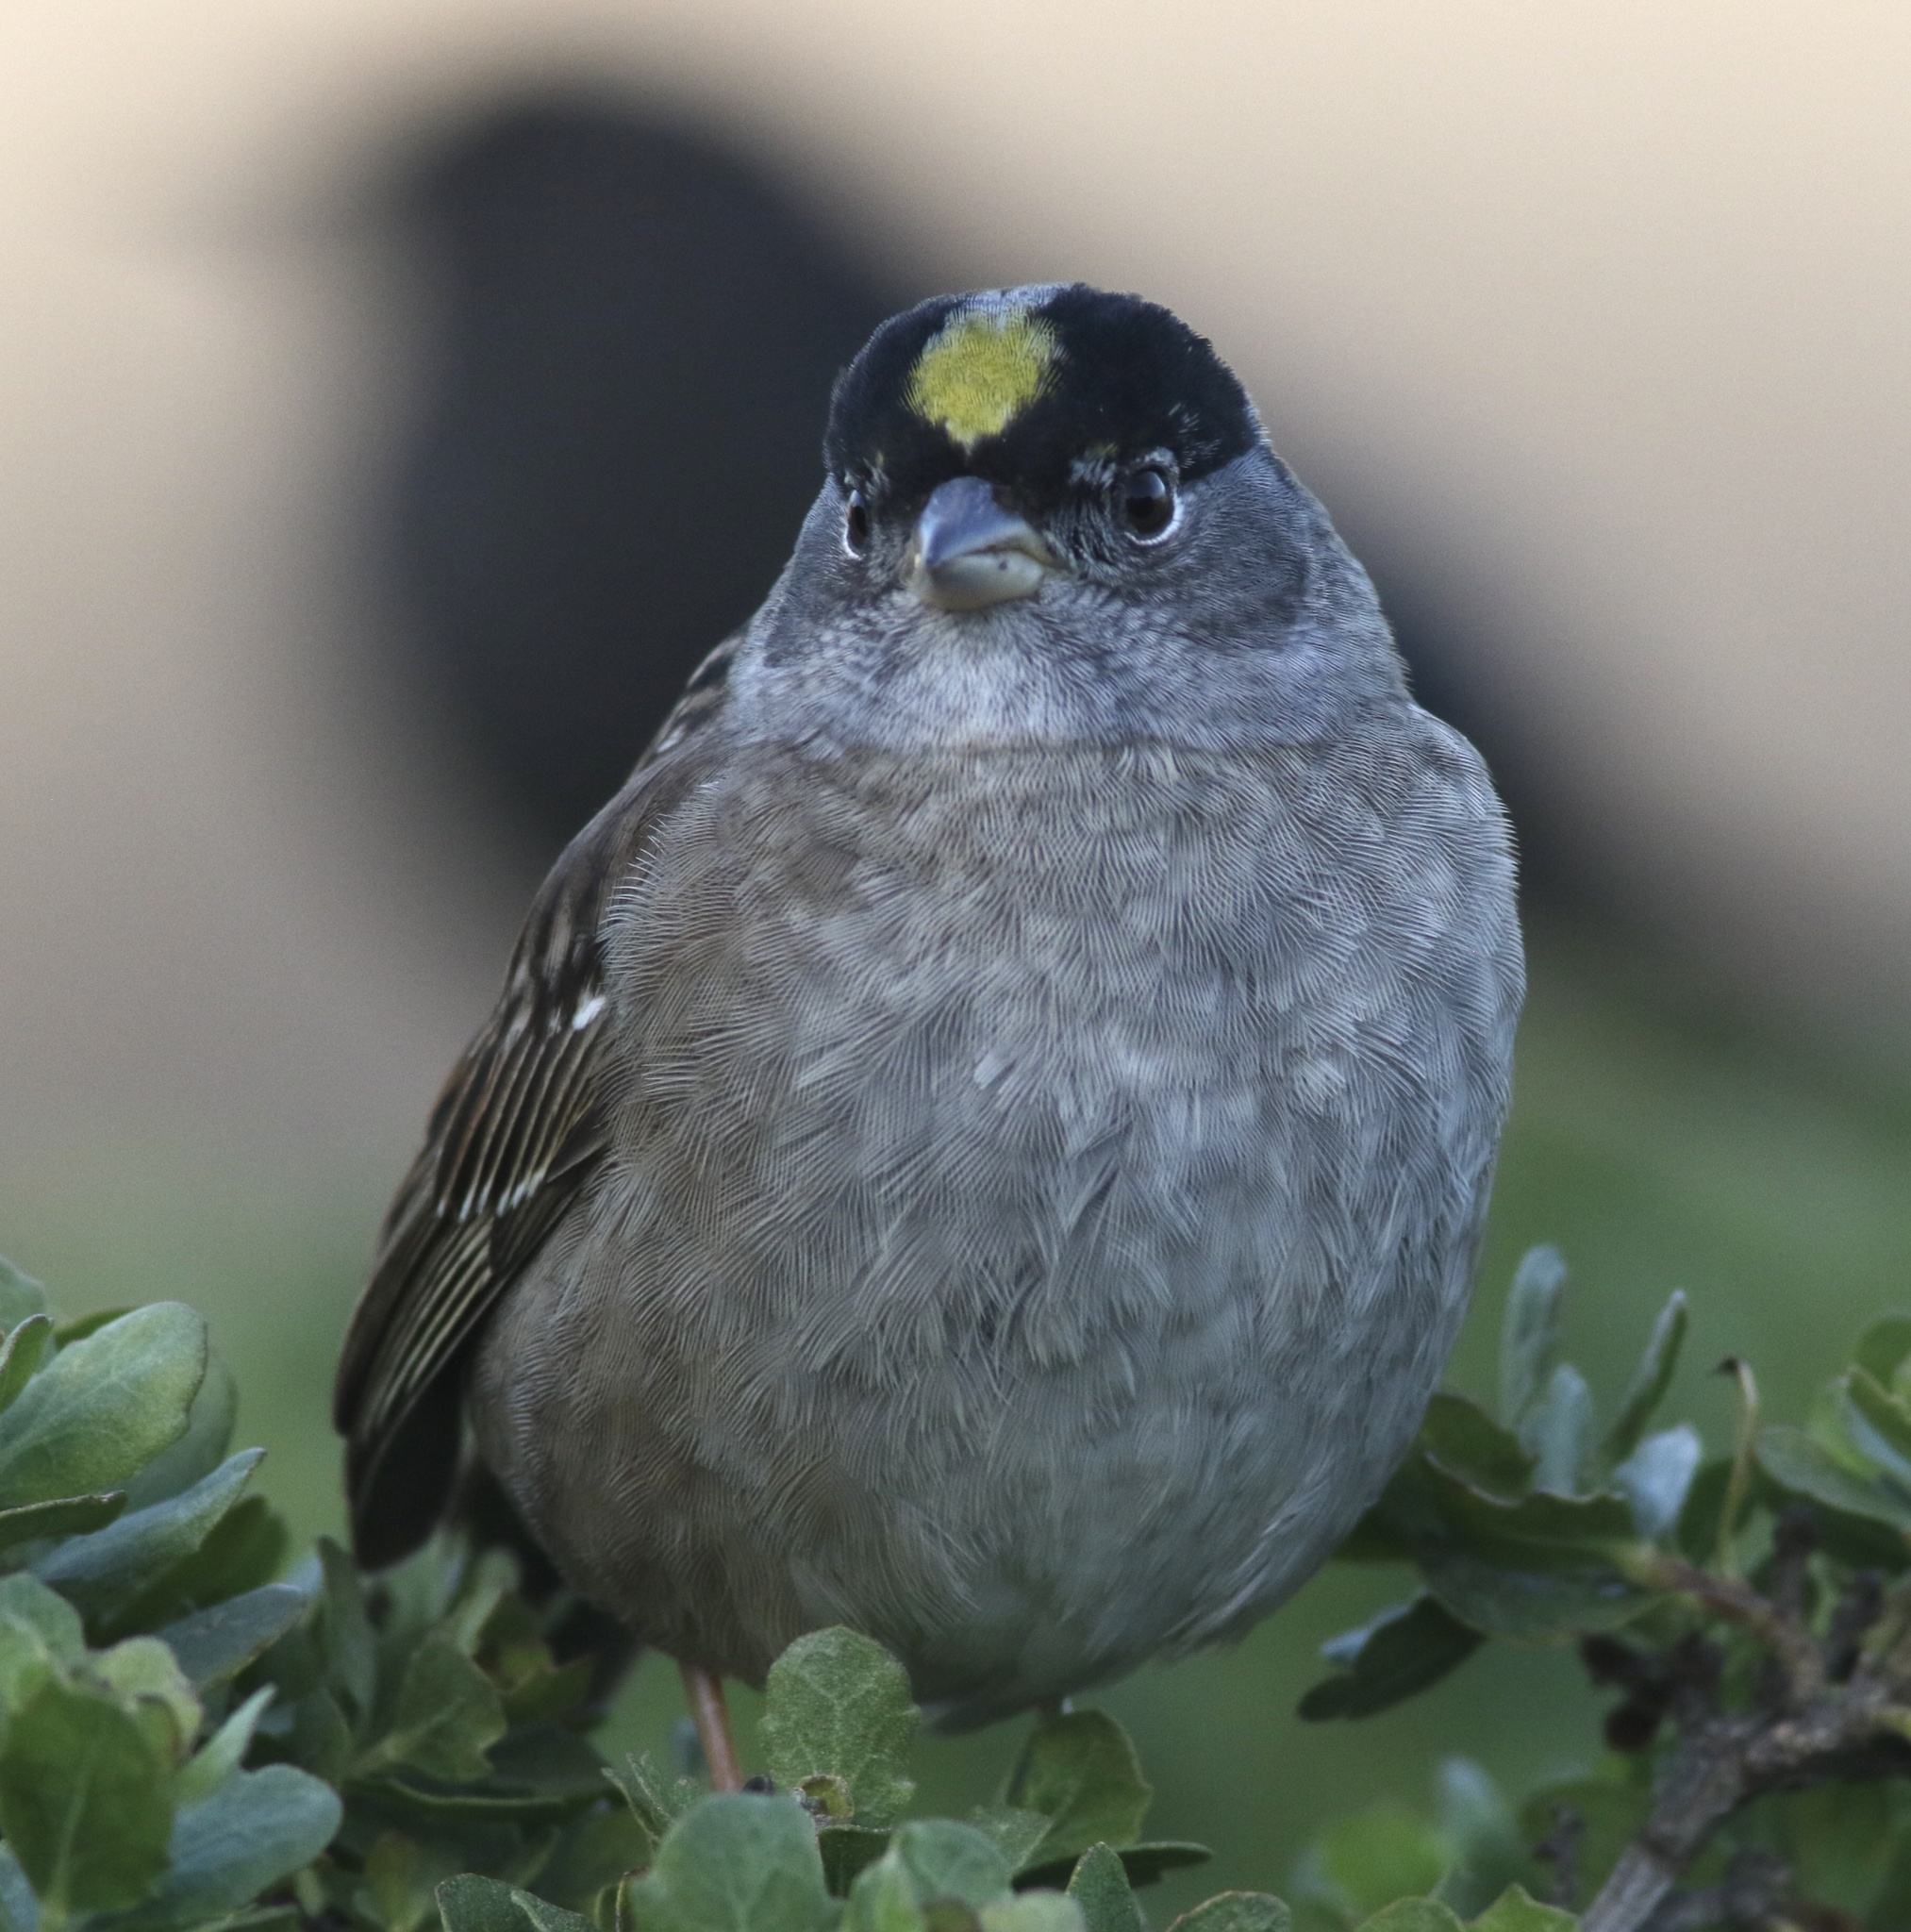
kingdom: Animalia
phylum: Chordata
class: Aves
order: Passeriformes
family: Passerellidae
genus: Zonotrichia
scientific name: Zonotrichia atricapilla
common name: Golden-crowned sparrow
